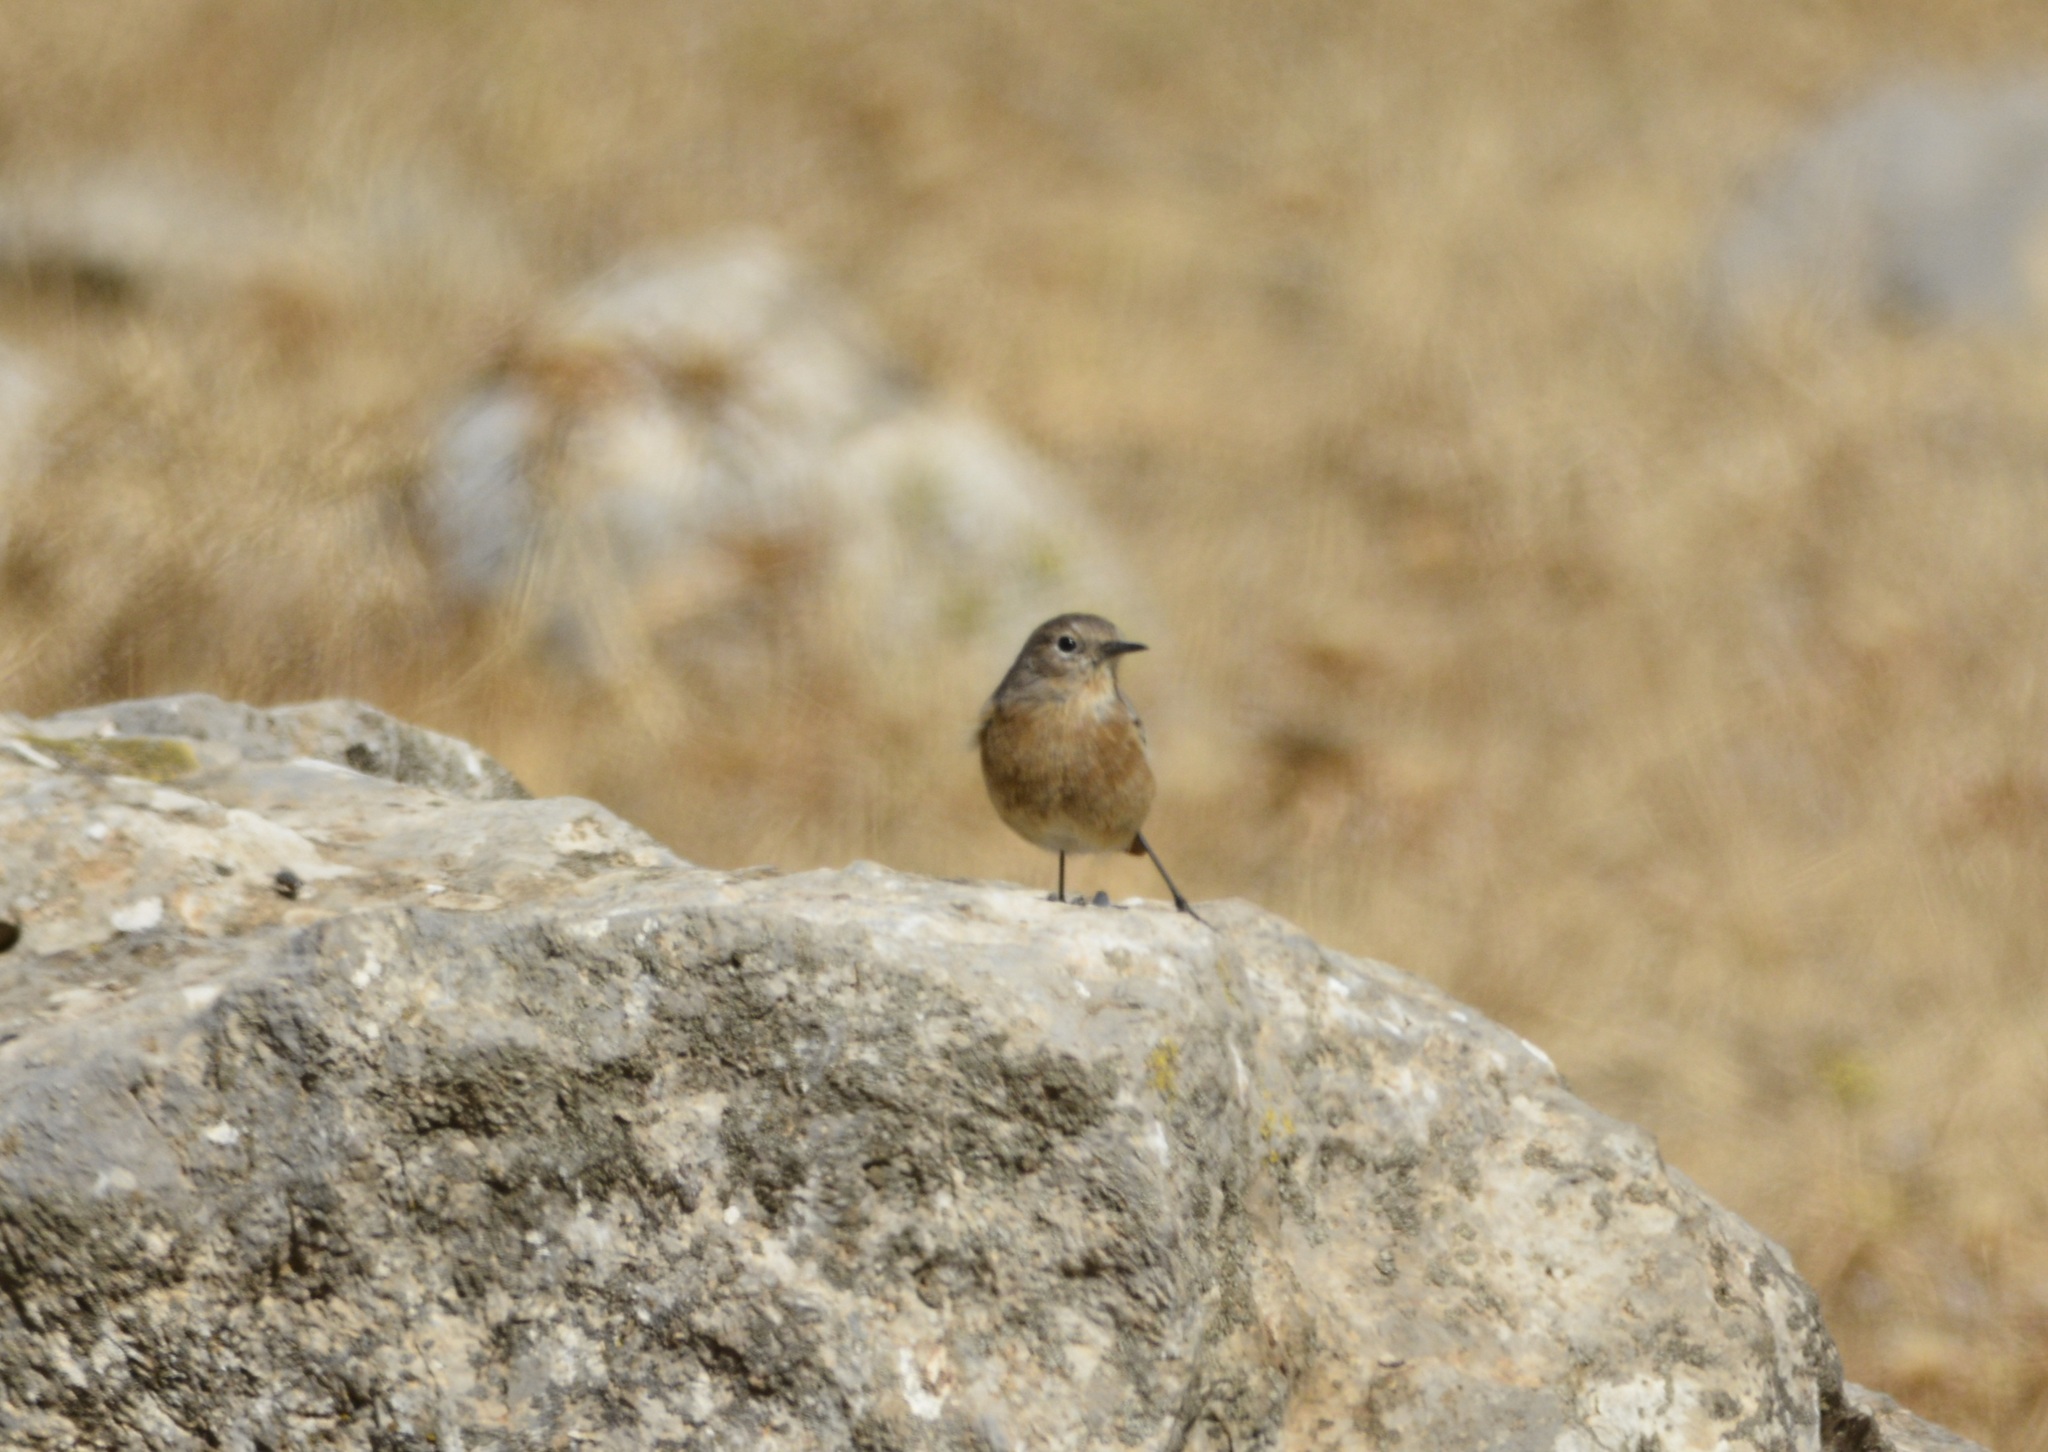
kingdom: Animalia
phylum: Chordata
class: Aves
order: Passeriformes
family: Muscicapidae
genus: Phoenicurus
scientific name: Phoenicurus moussieri
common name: Moussier's redstart
